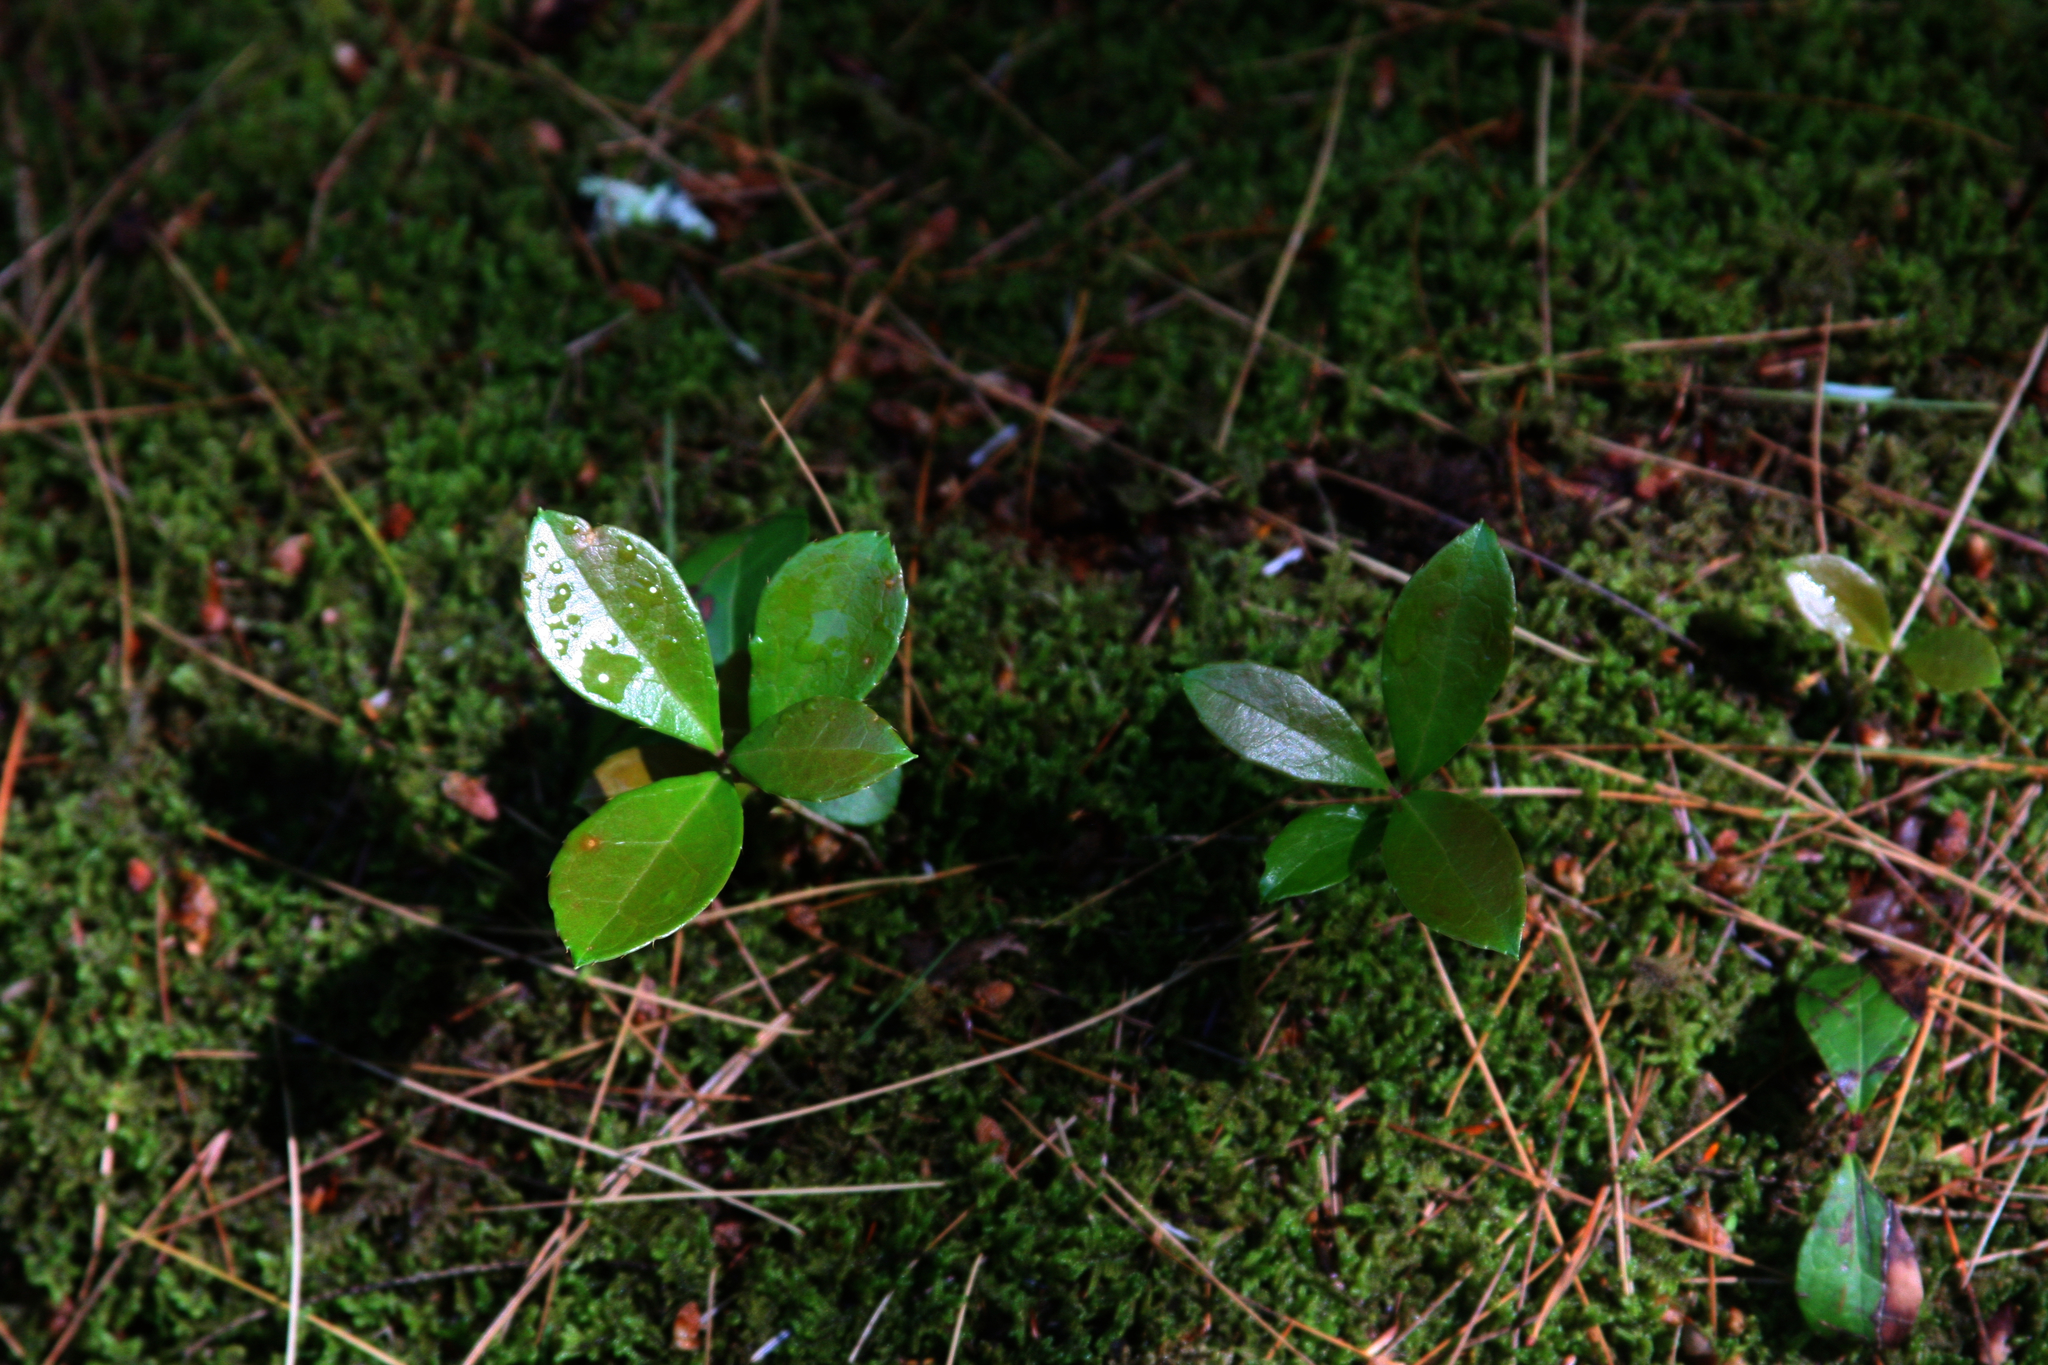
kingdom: Plantae
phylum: Tracheophyta
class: Magnoliopsida
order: Ericales
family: Ericaceae
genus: Gaultheria
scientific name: Gaultheria procumbens
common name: Checkerberry
